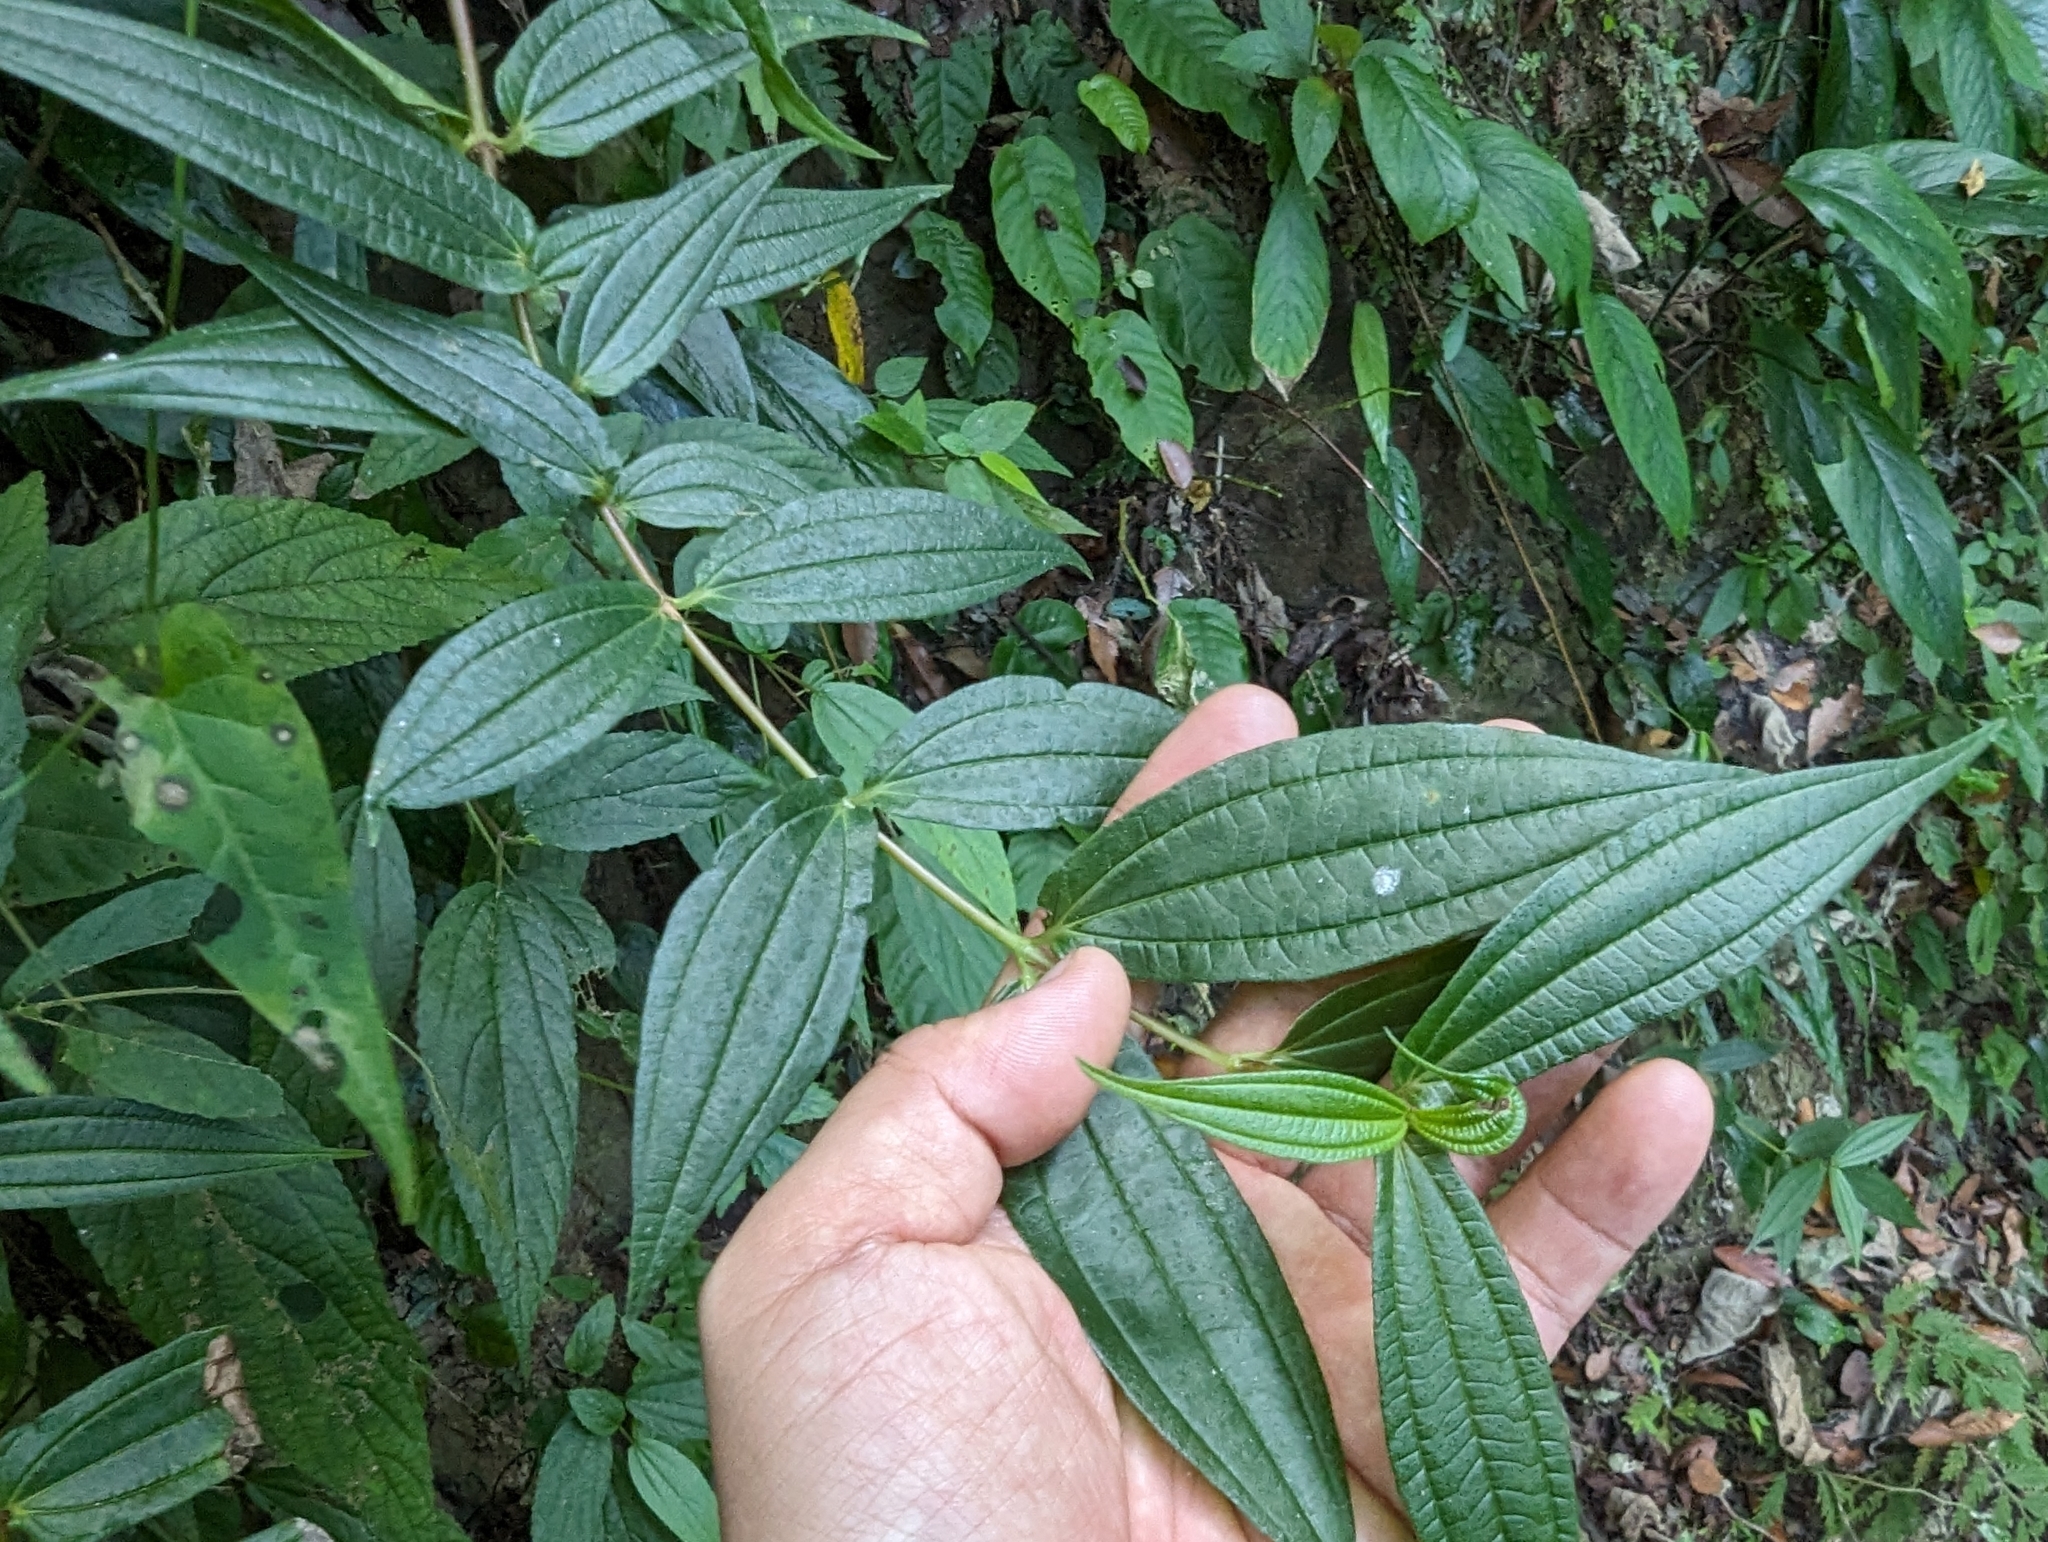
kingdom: Plantae
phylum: Tracheophyta
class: Magnoliopsida
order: Rosales
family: Urticaceae
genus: Gonostegia
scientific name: Gonostegia triandra
